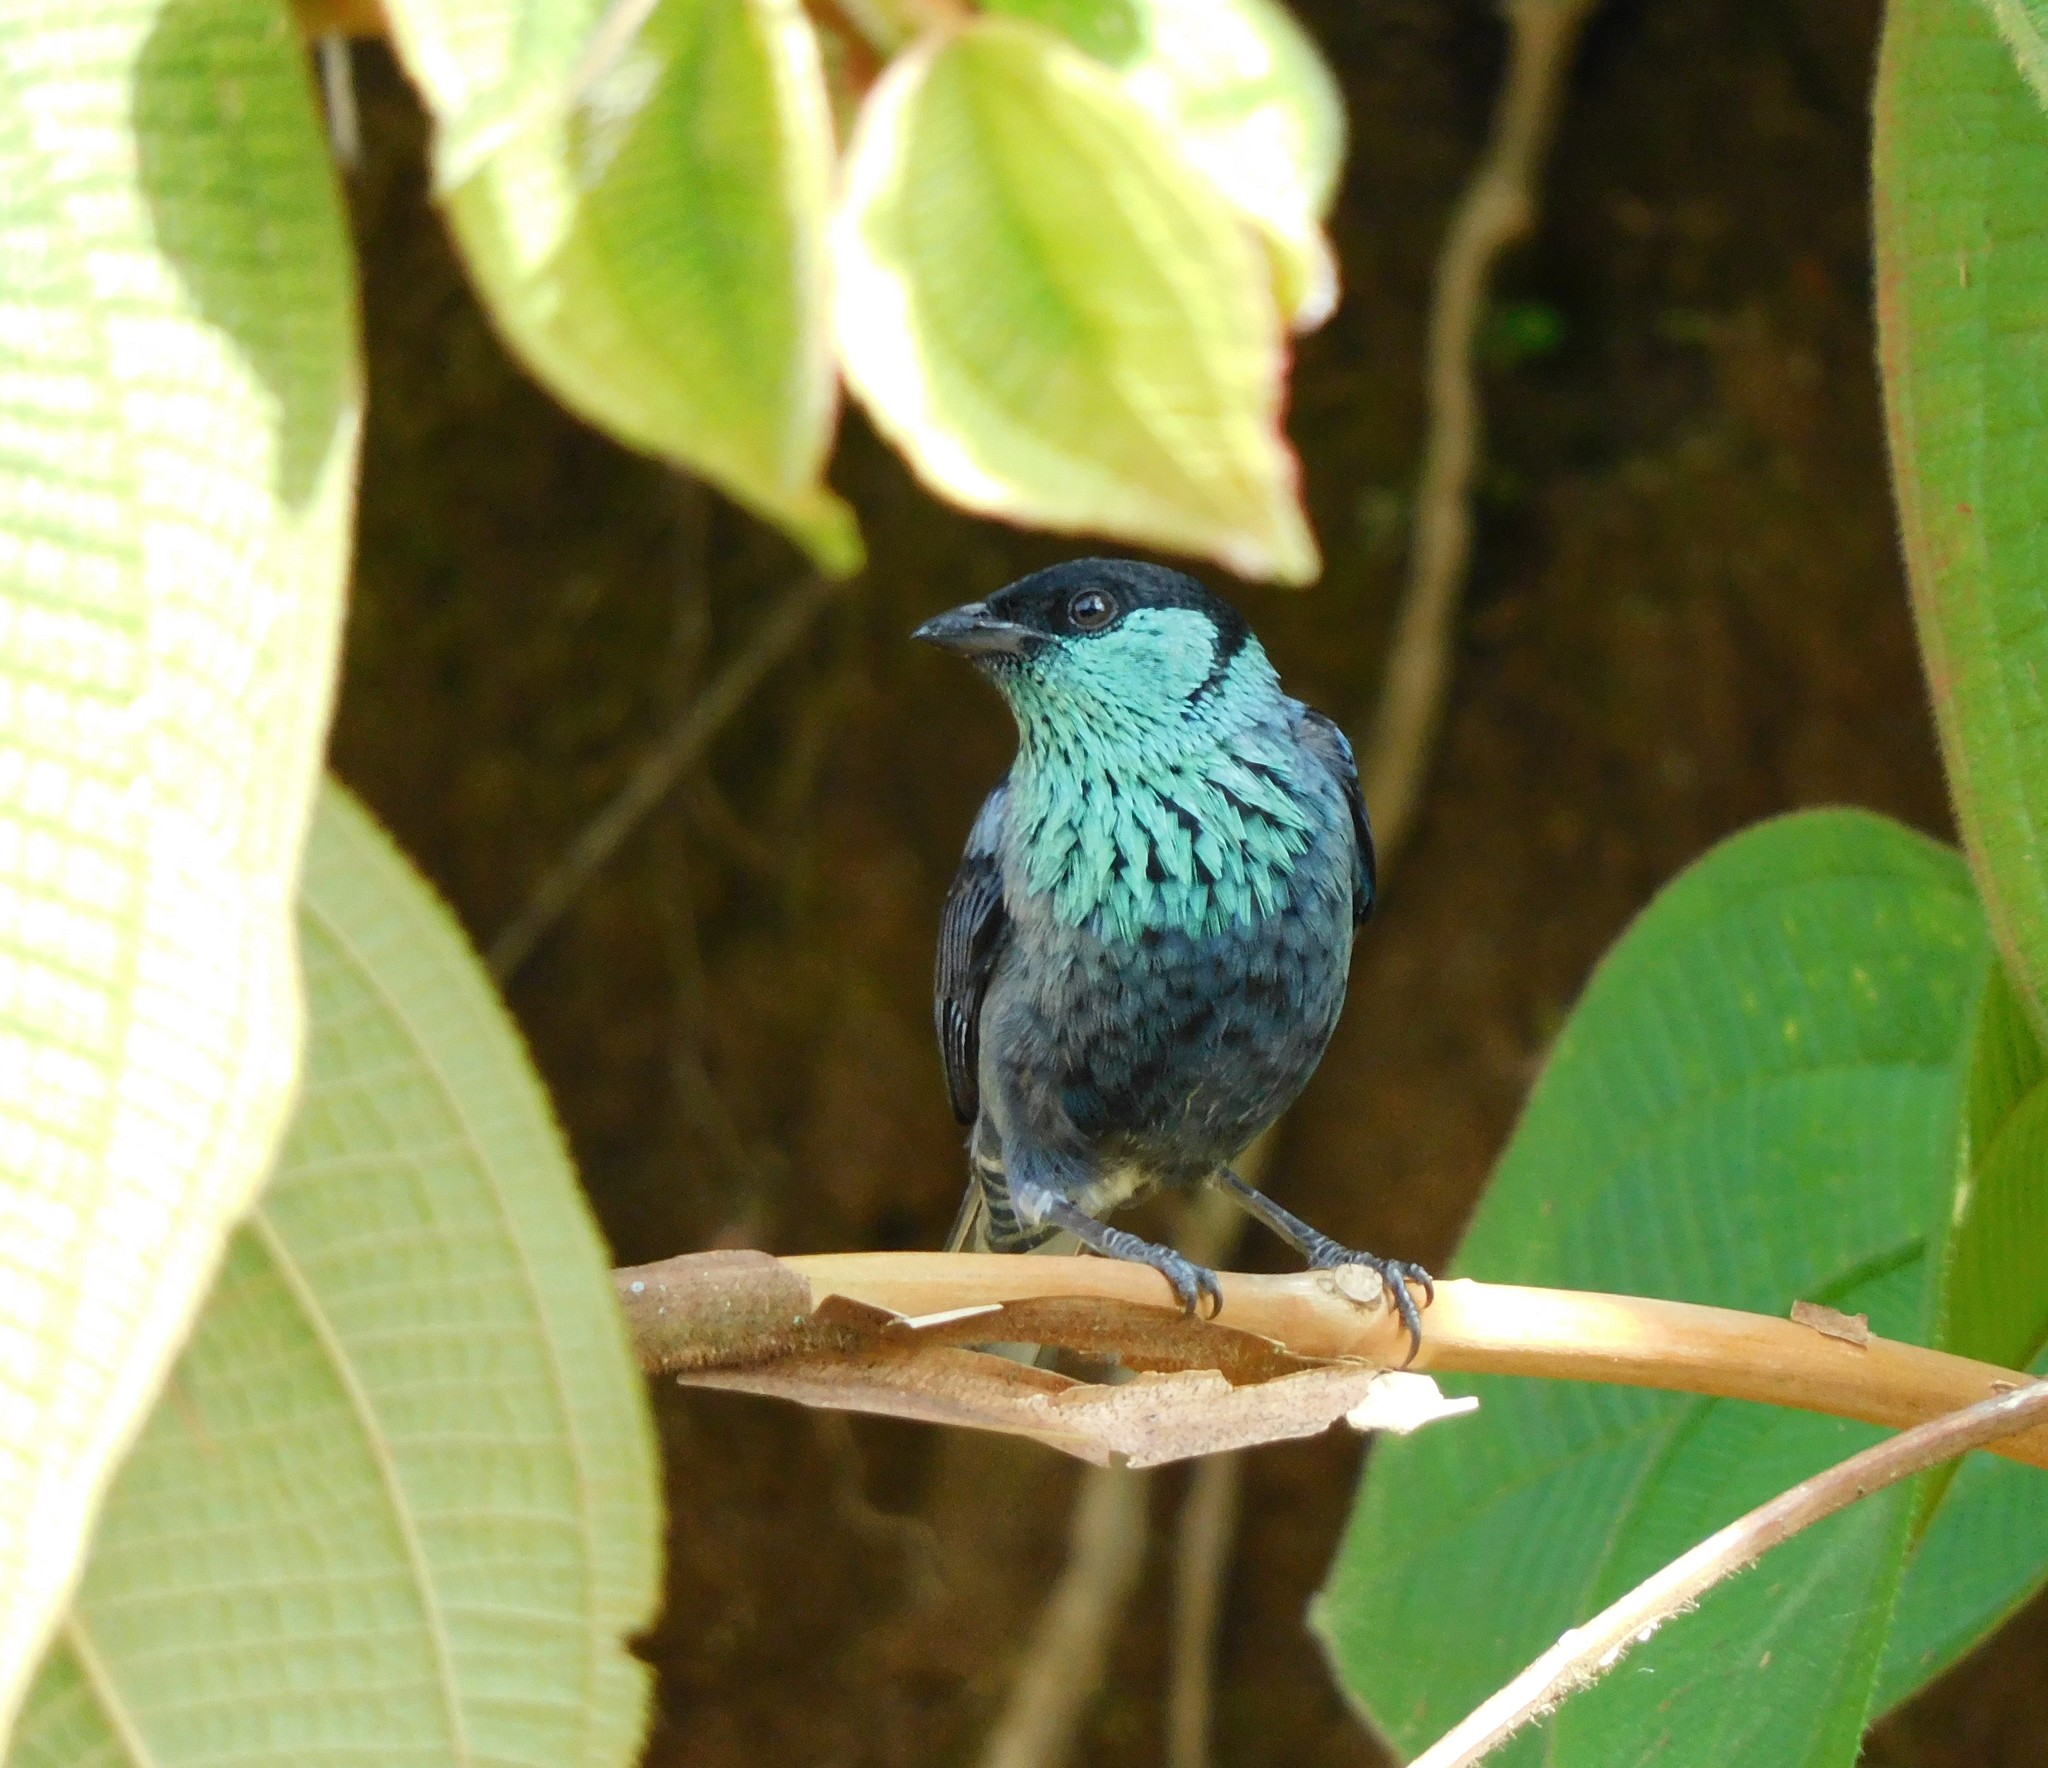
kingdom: Animalia
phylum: Chordata
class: Aves
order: Passeriformes
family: Thraupidae
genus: Stilpnia
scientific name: Stilpnia heinei
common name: Black-capped tanager
